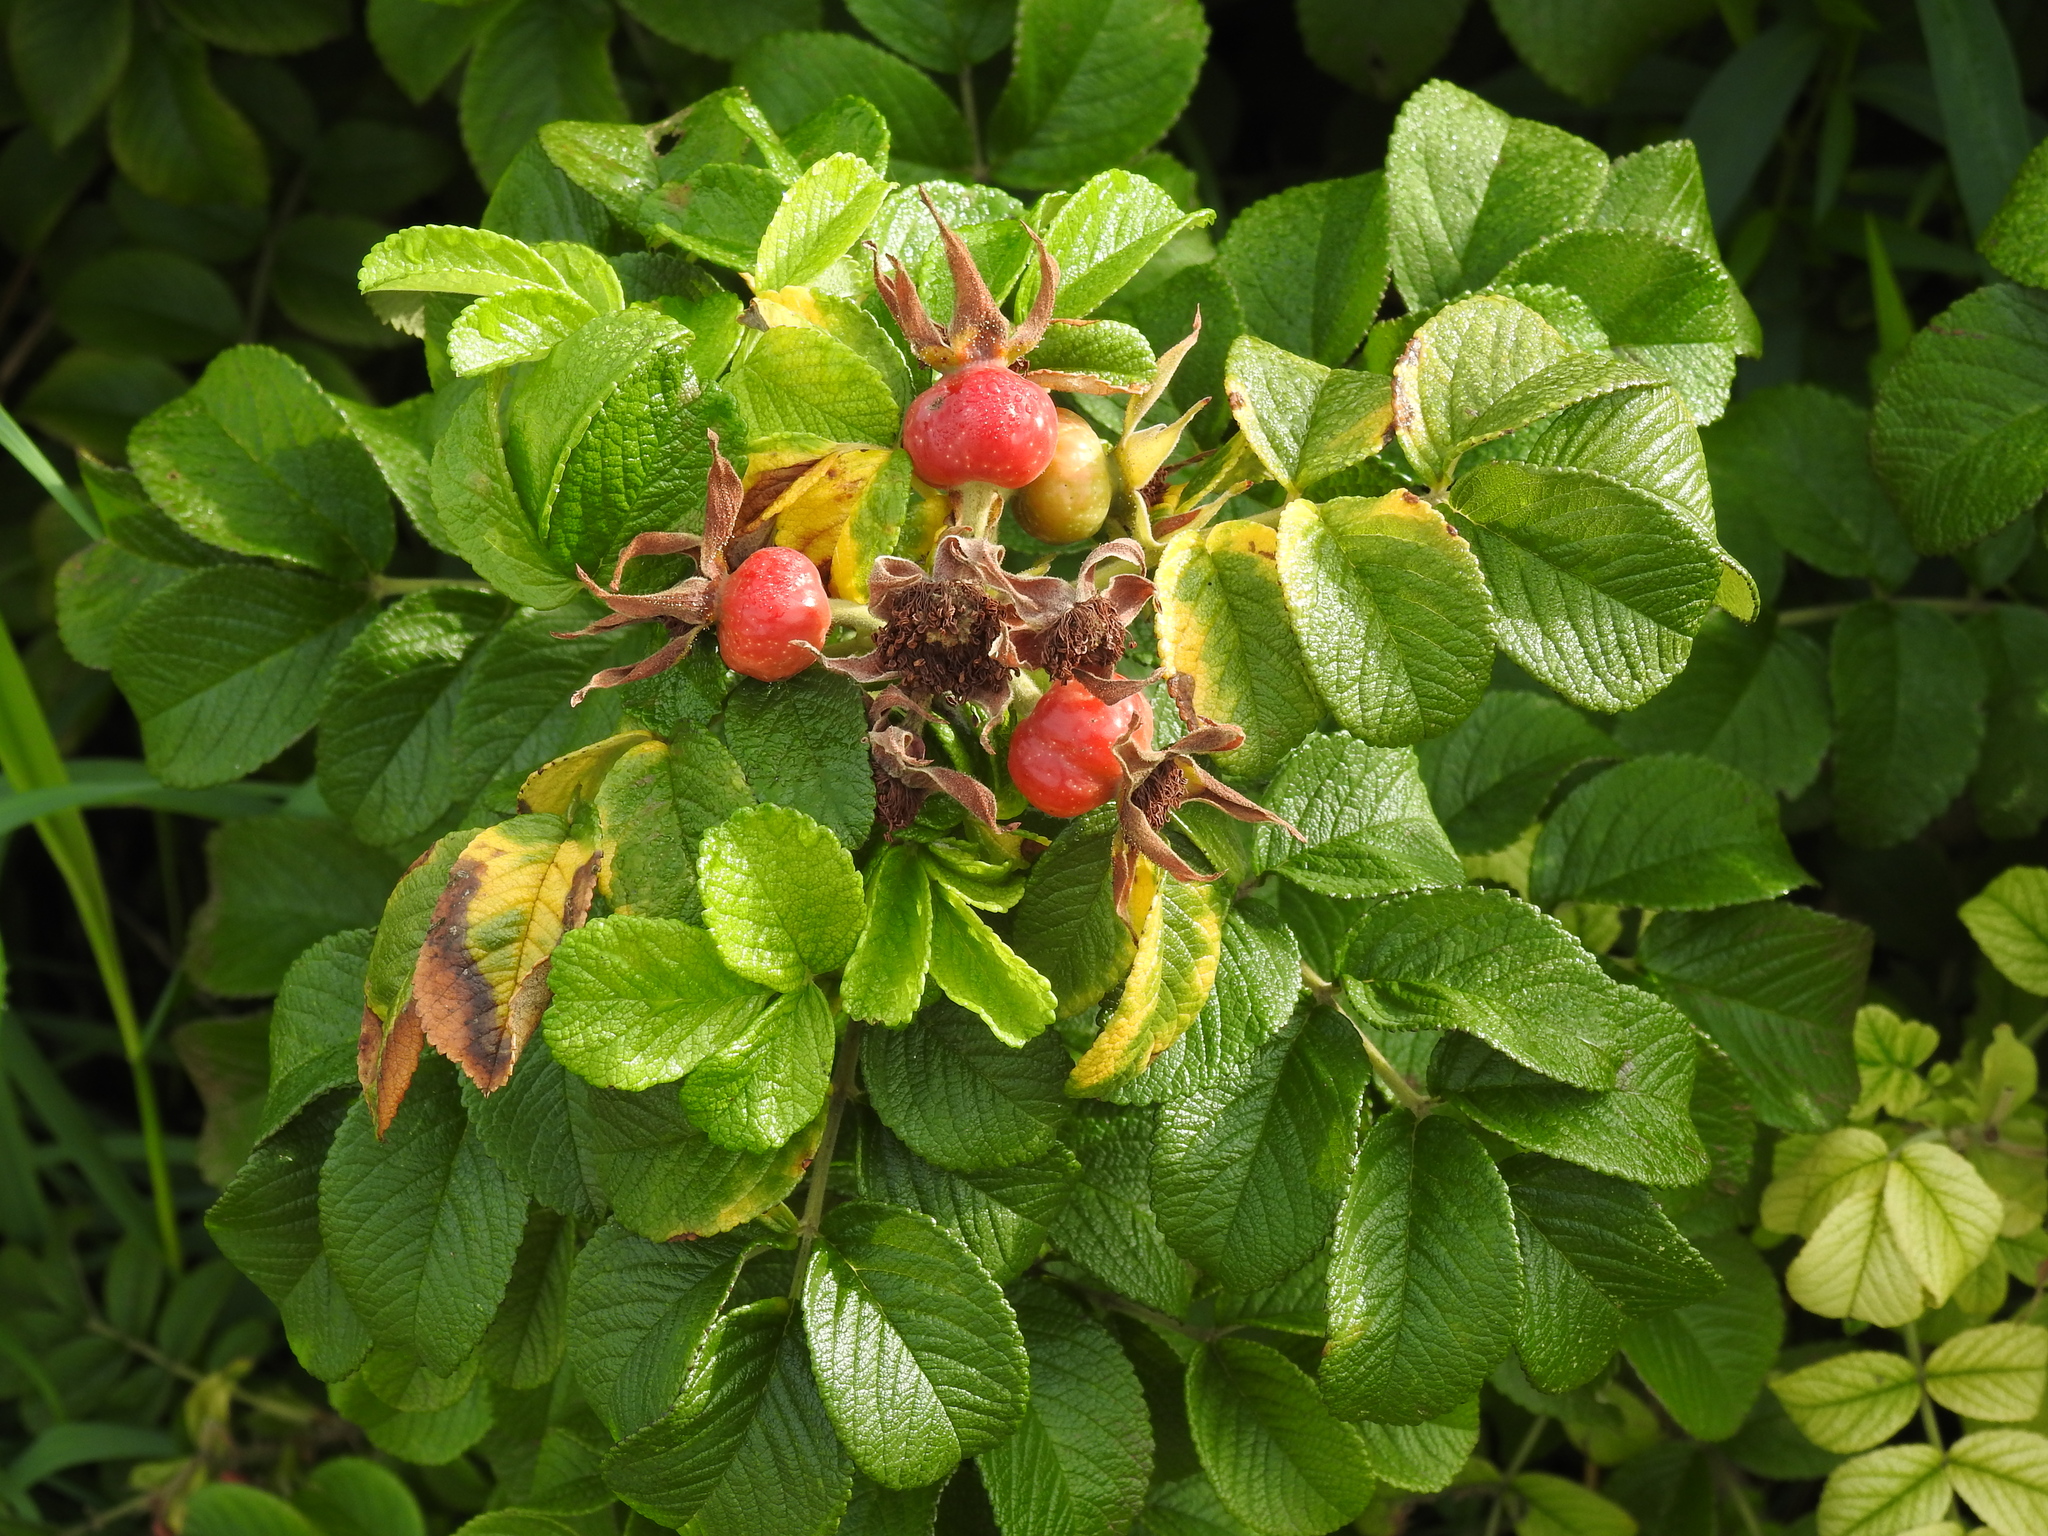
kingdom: Plantae
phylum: Tracheophyta
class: Magnoliopsida
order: Rosales
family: Rosaceae
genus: Rosa
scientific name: Rosa rugosa
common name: Japanese rose
